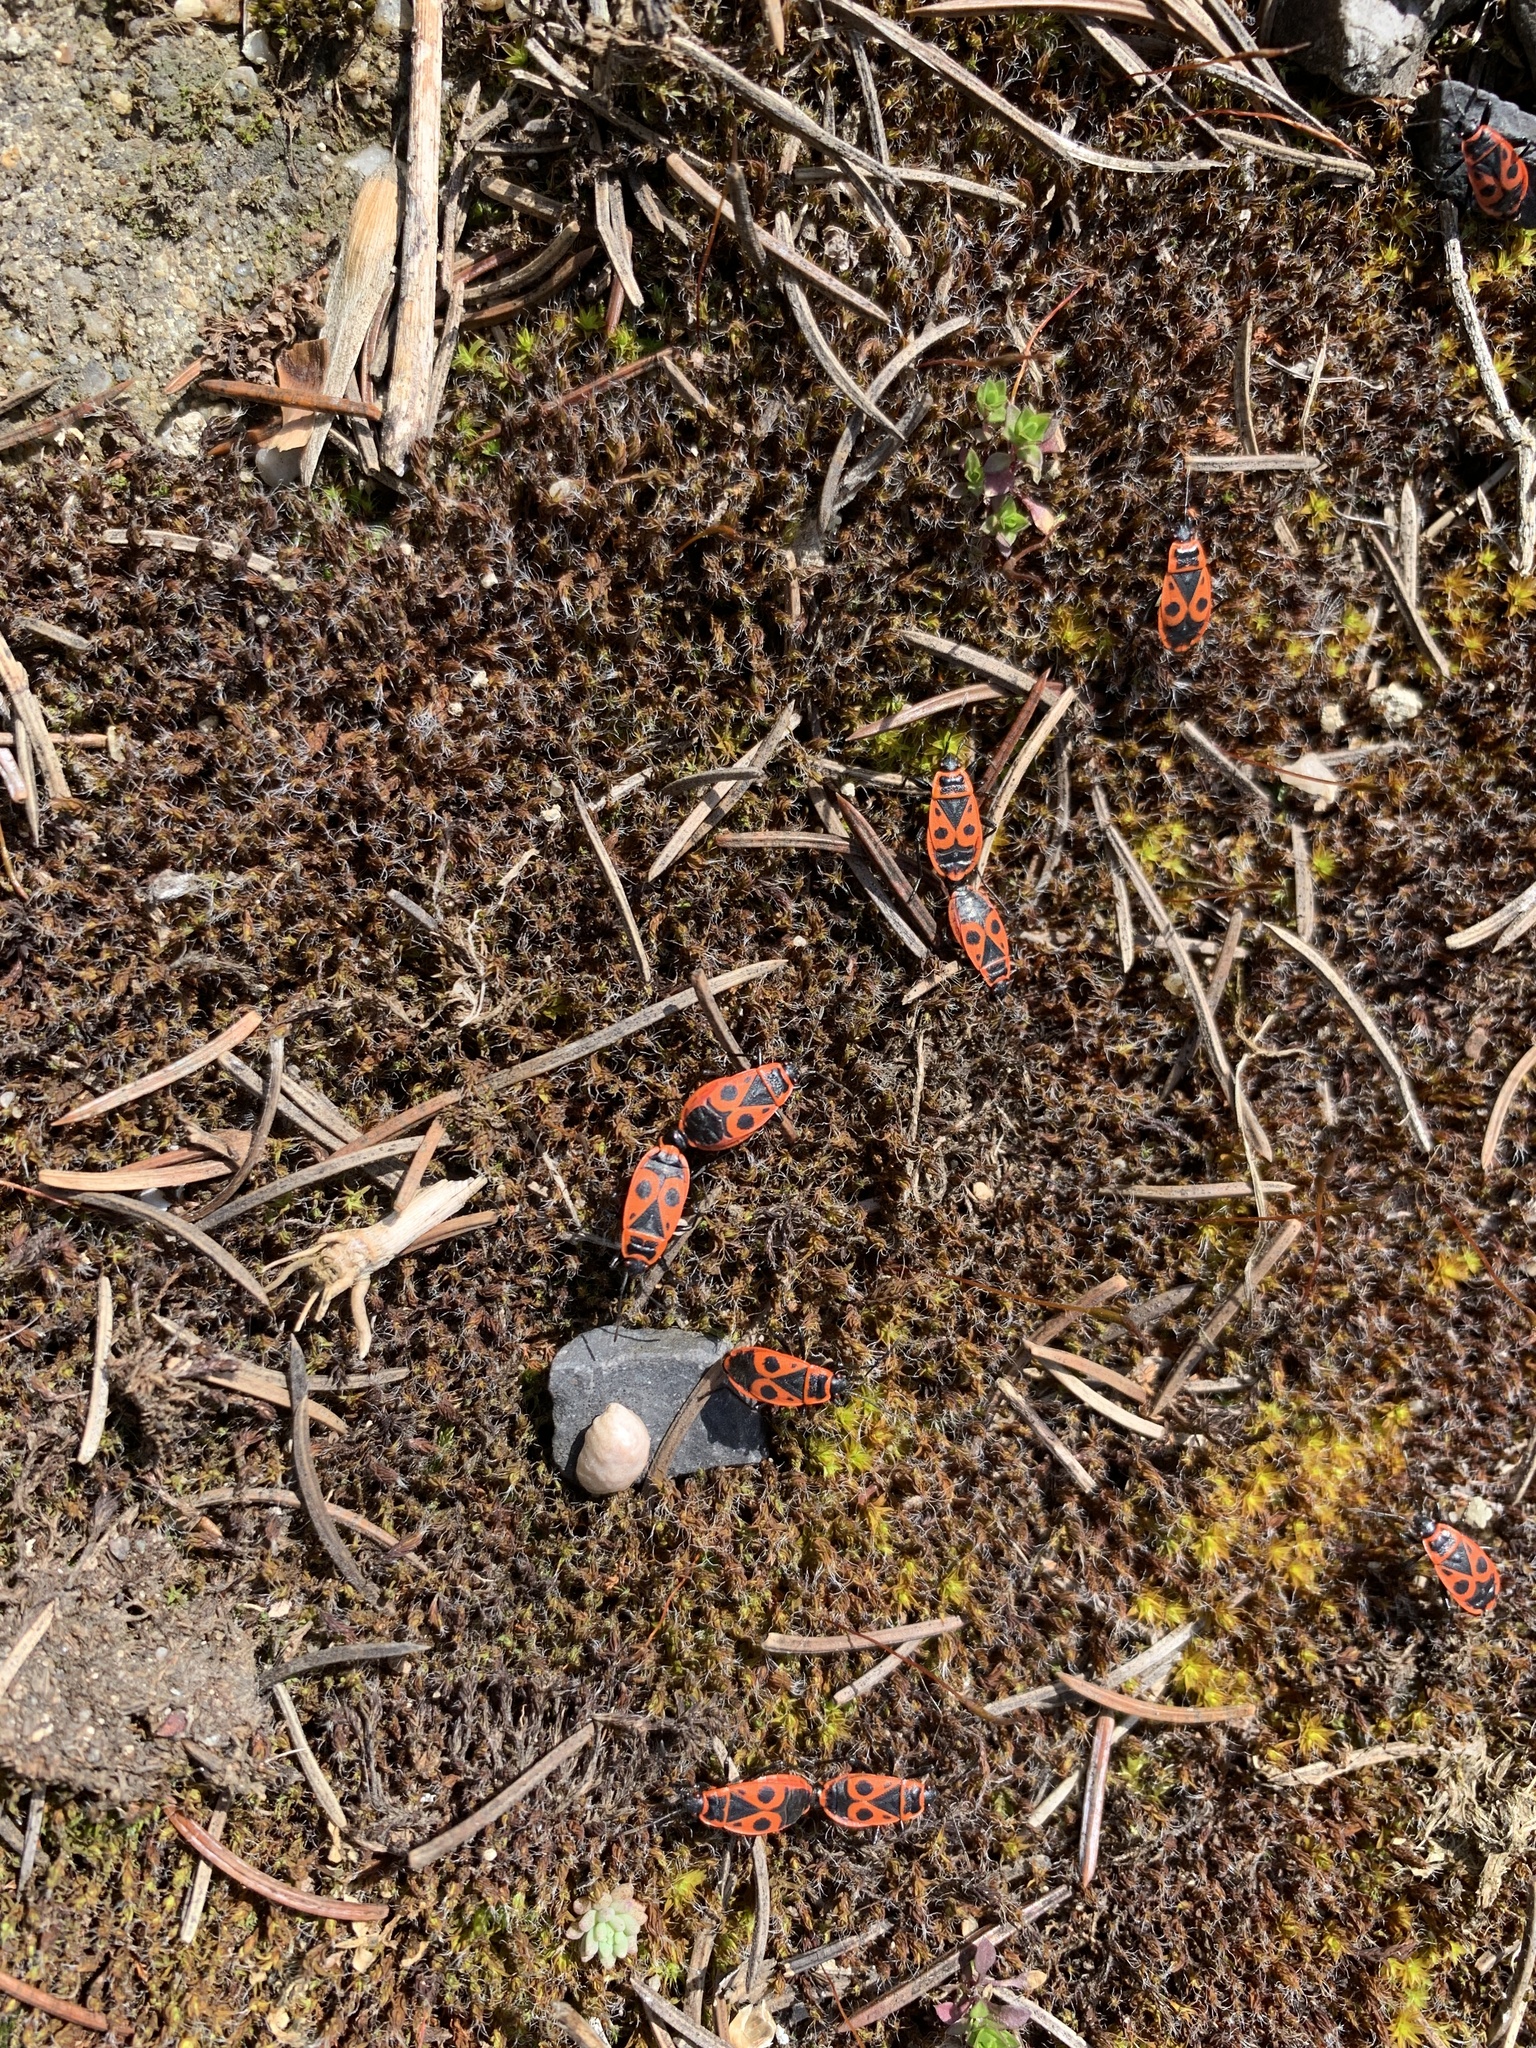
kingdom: Animalia
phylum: Arthropoda
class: Insecta
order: Hemiptera
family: Pyrrhocoridae
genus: Pyrrhocoris
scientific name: Pyrrhocoris apterus
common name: Firebug
